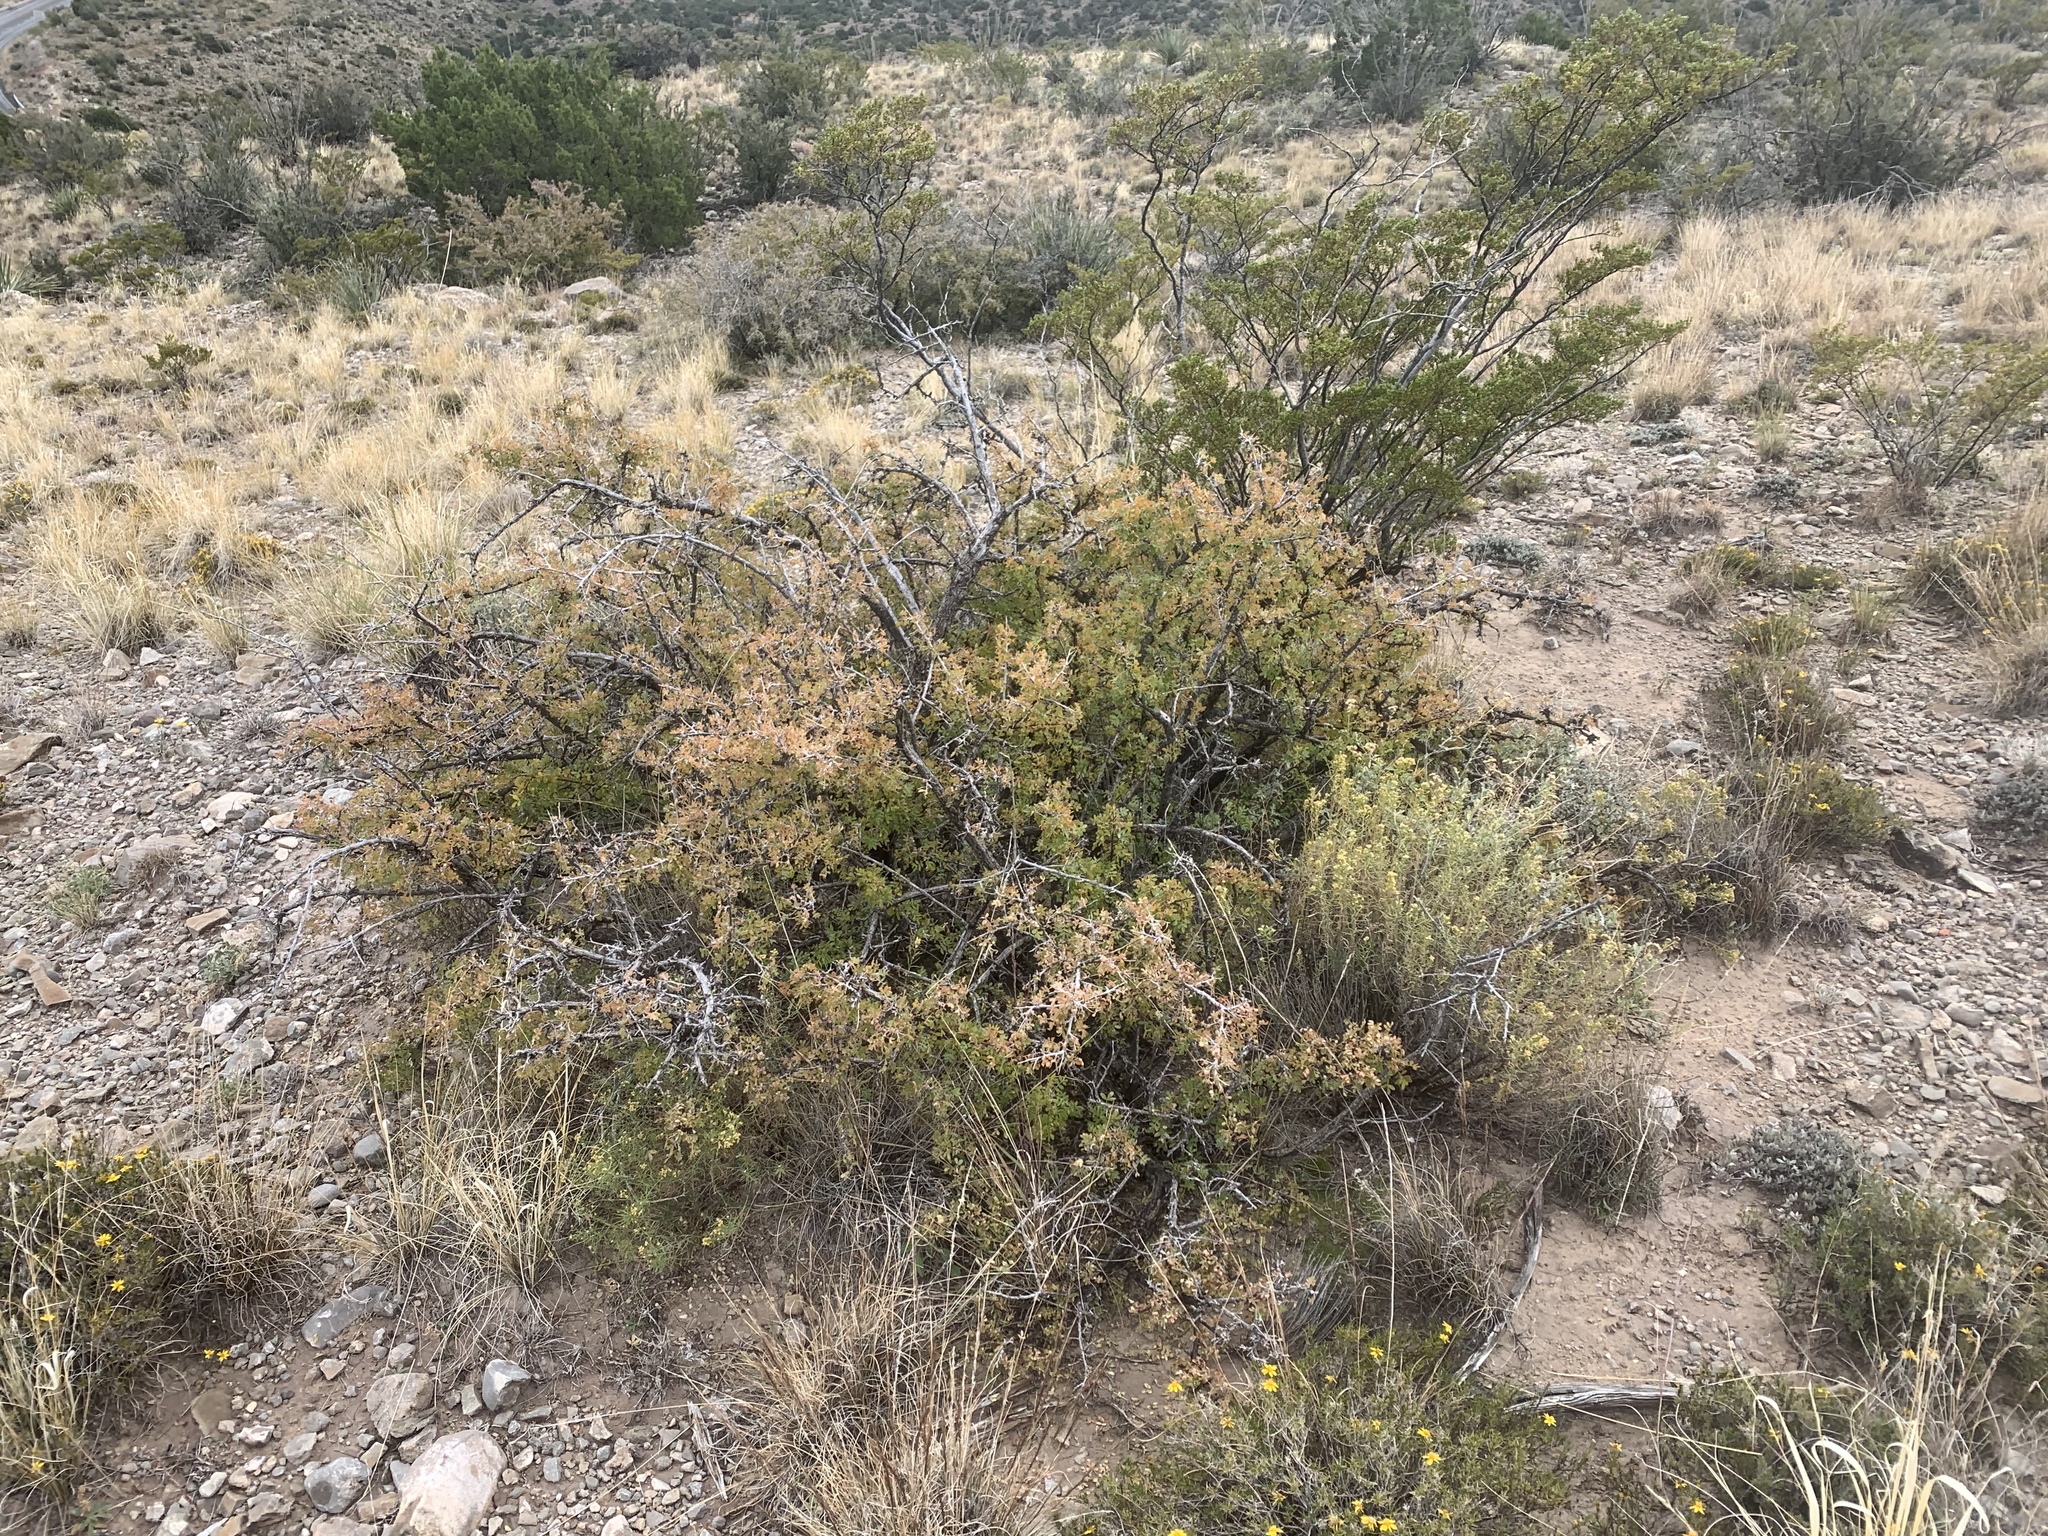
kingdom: Plantae
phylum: Tracheophyta
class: Magnoliopsida
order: Sapindales
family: Anacardiaceae
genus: Rhus
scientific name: Rhus microphylla
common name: Desert sumac
